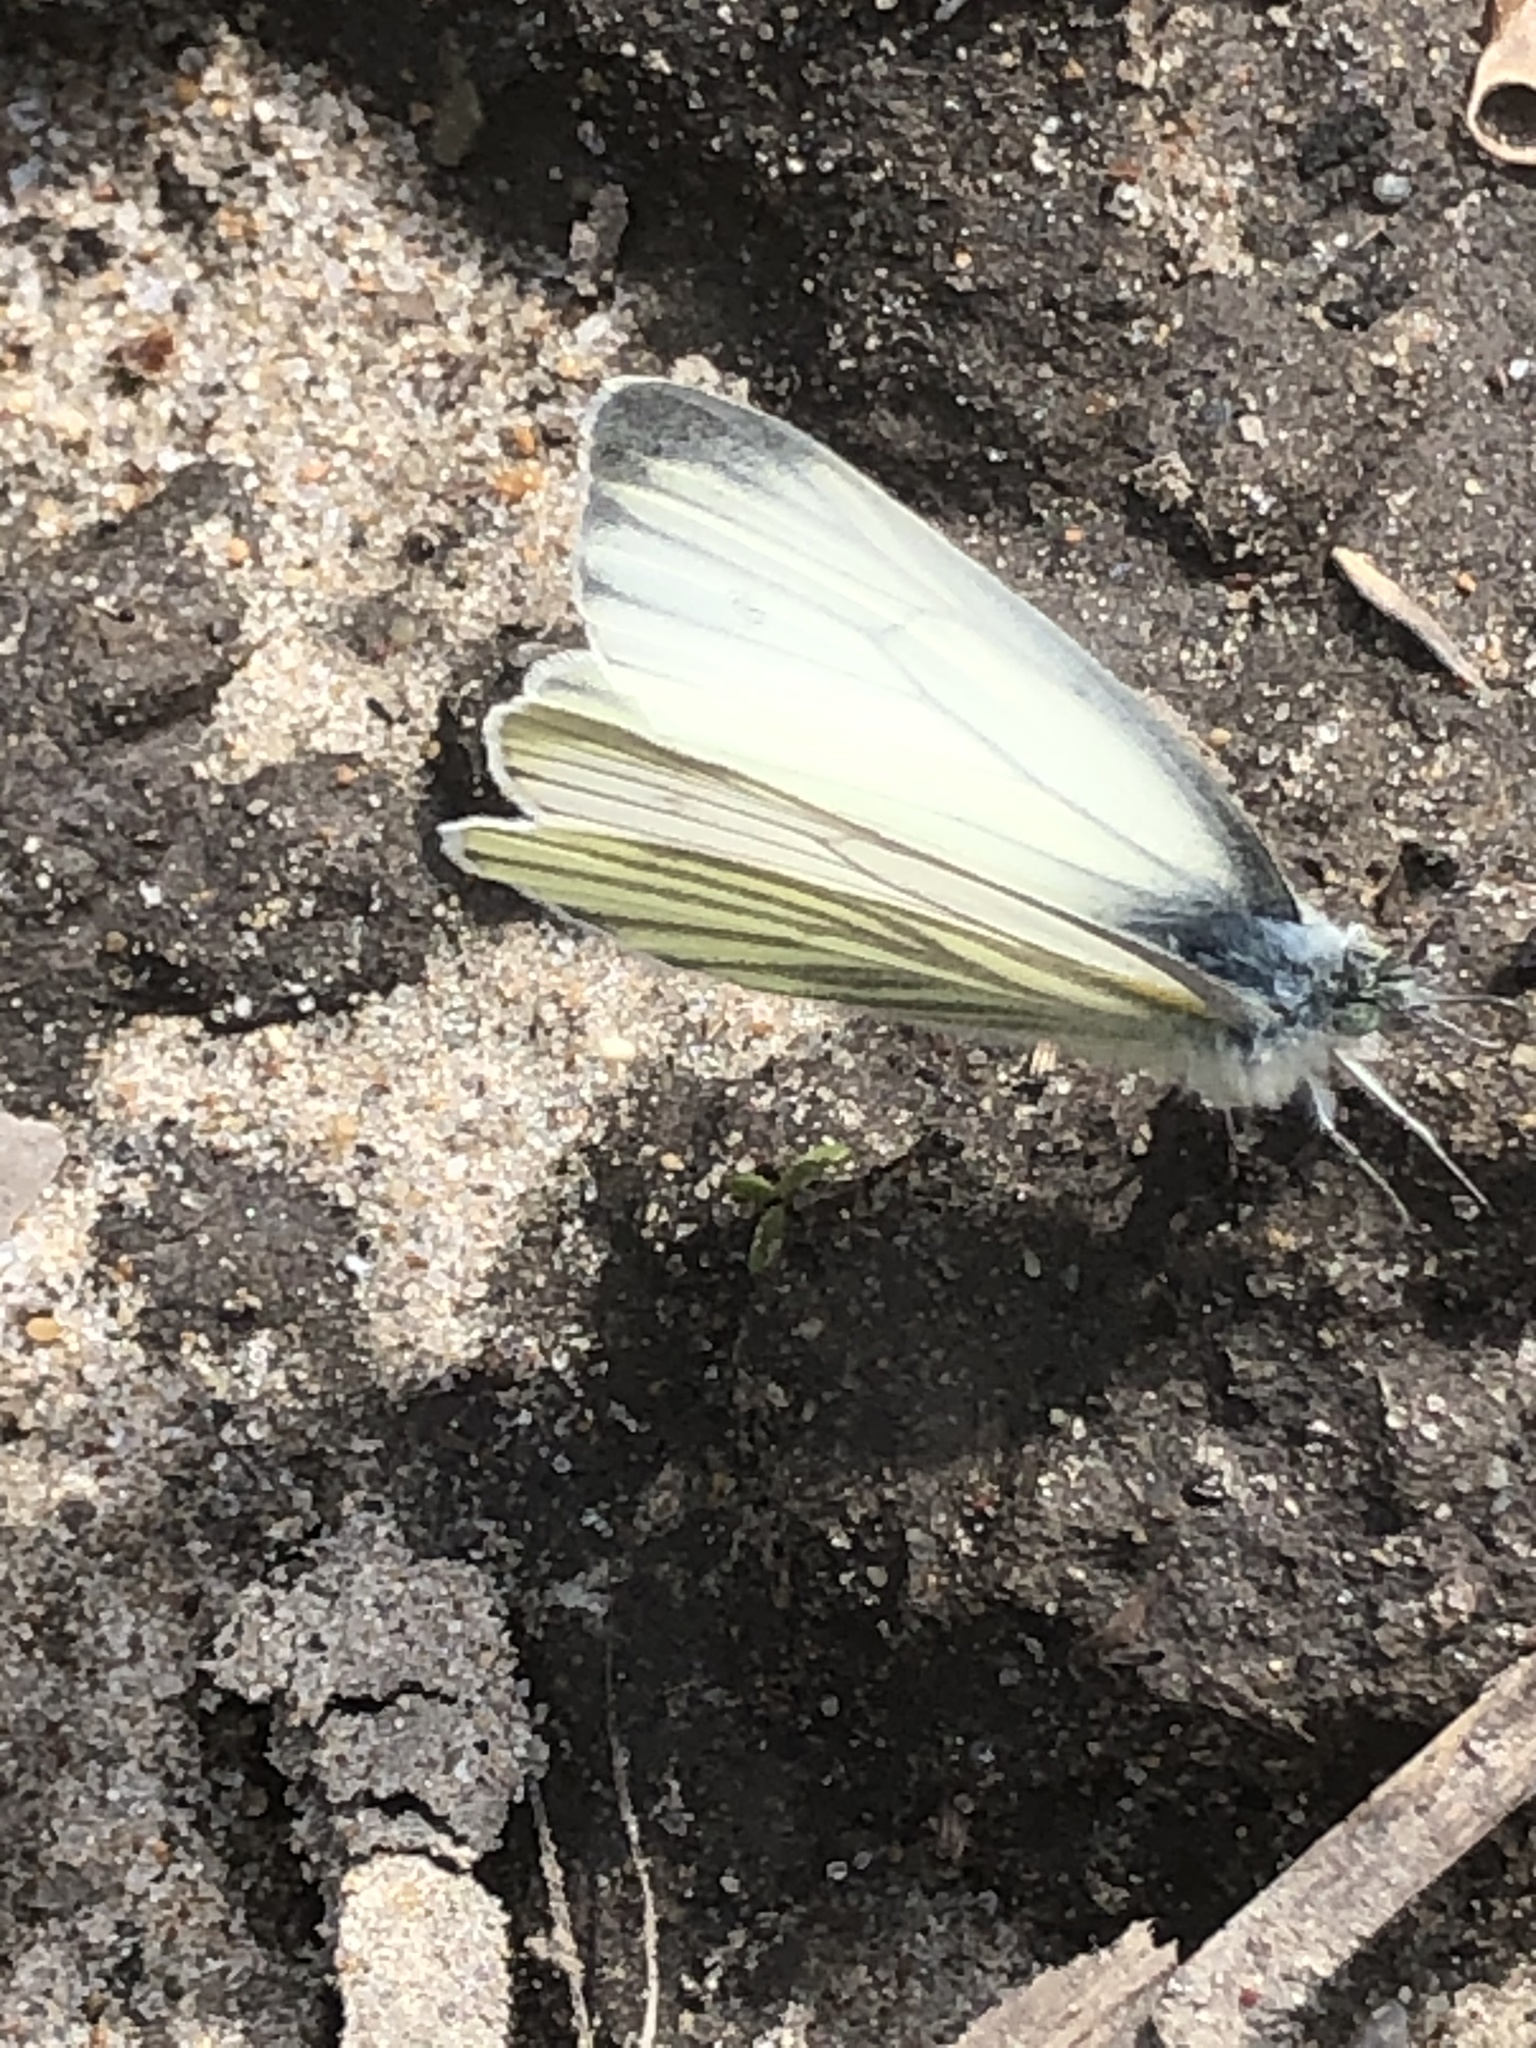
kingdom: Animalia
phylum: Arthropoda
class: Insecta
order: Lepidoptera
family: Pieridae
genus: Pieris
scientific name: Pieris napi
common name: Green-veined white
